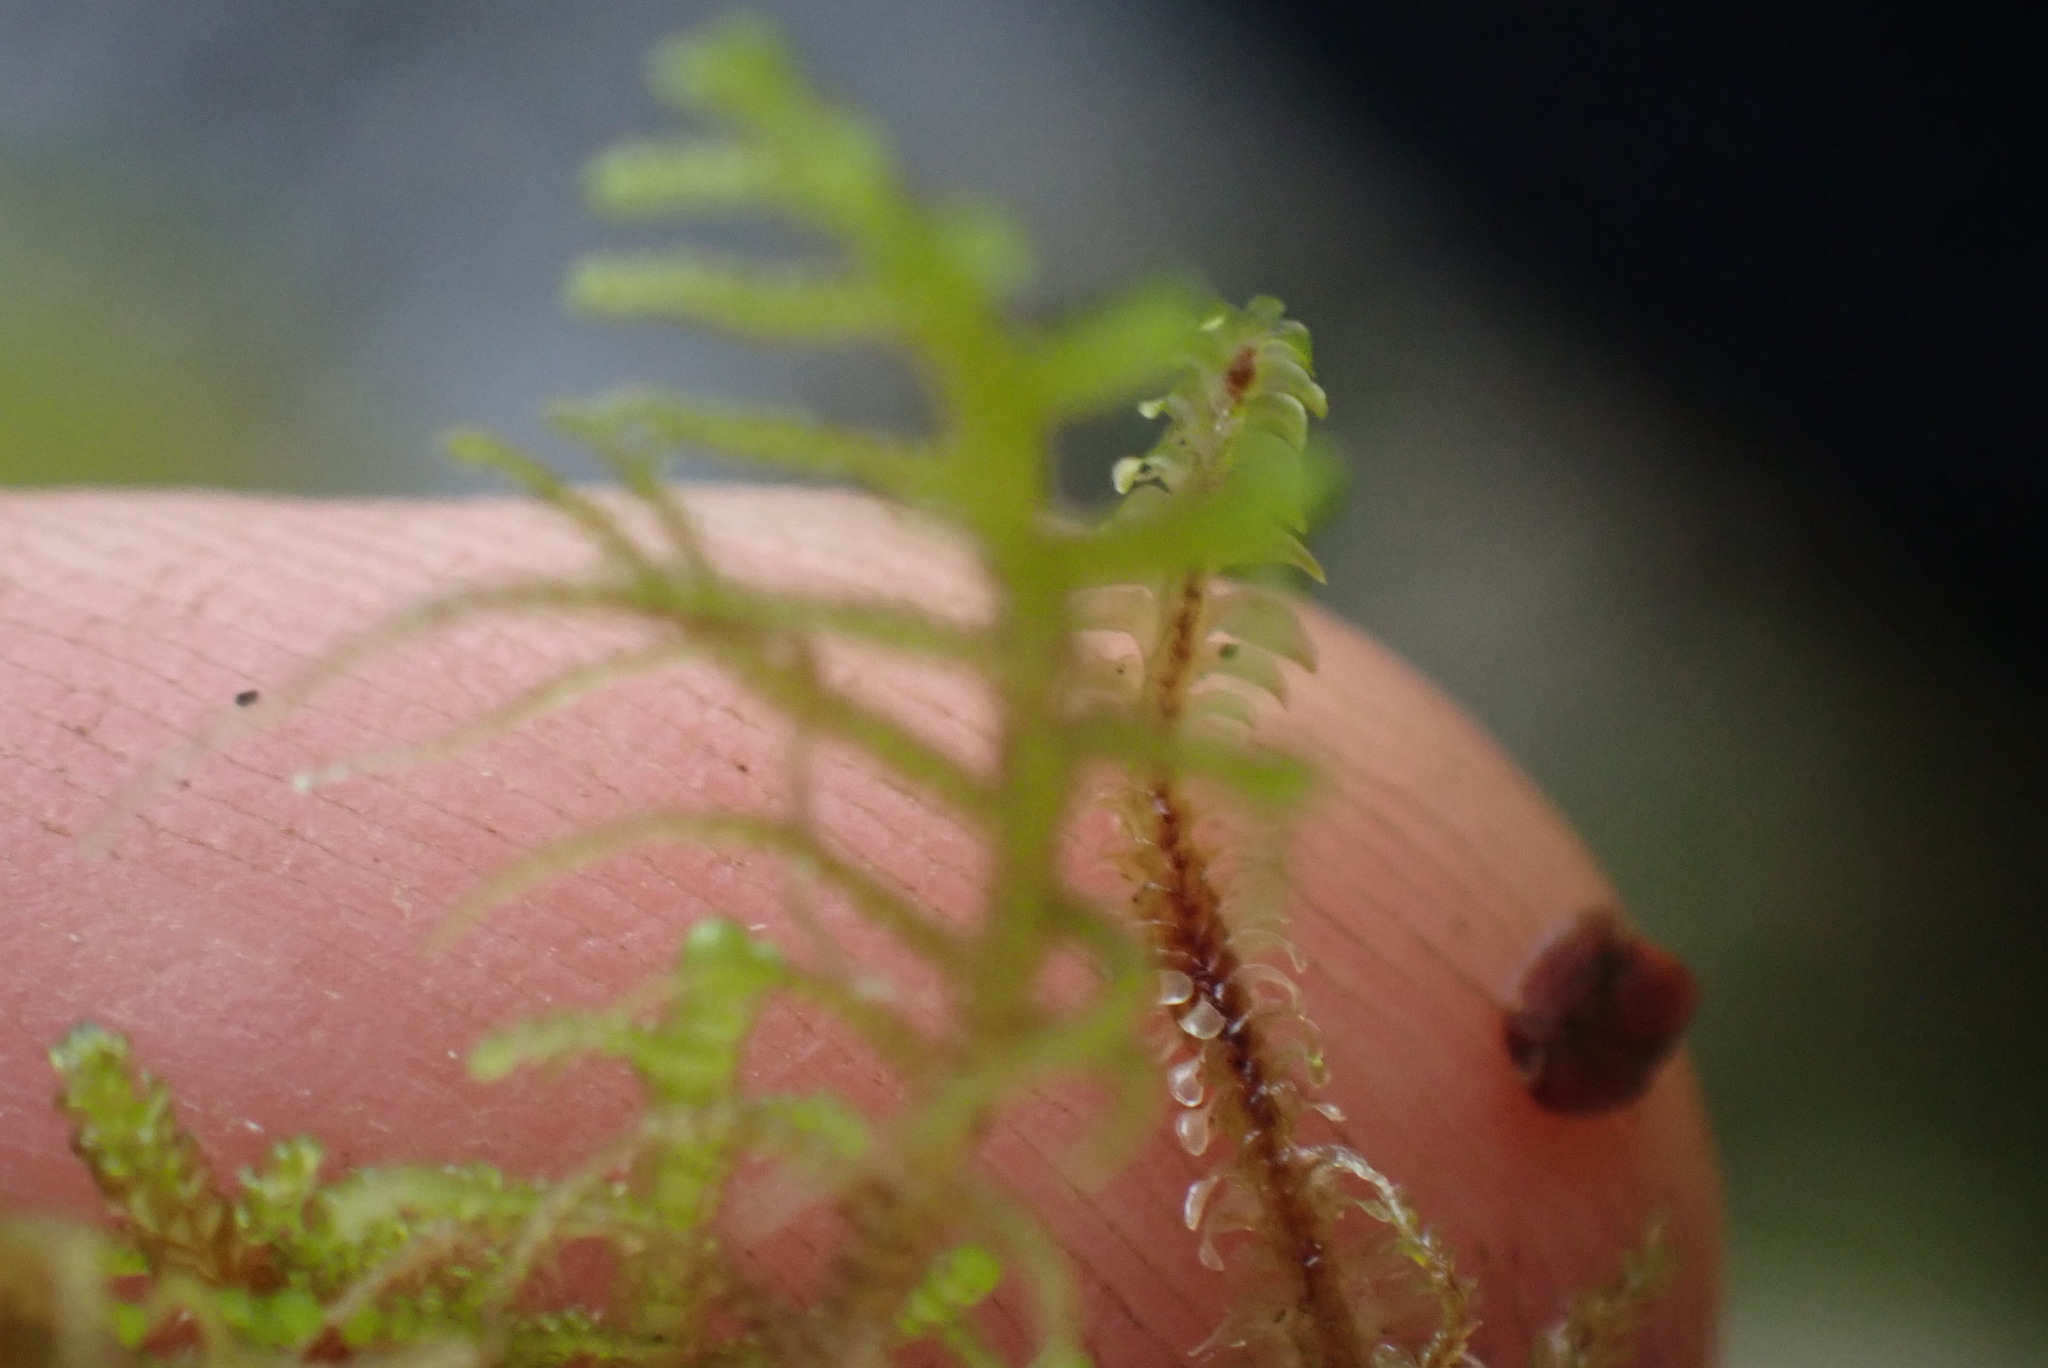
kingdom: Plantae
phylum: Marchantiophyta
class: Jungermanniopsida
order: Jungermanniales
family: Lepidoziaceae
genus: Lepidozia
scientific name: Lepidozia filamentosa
